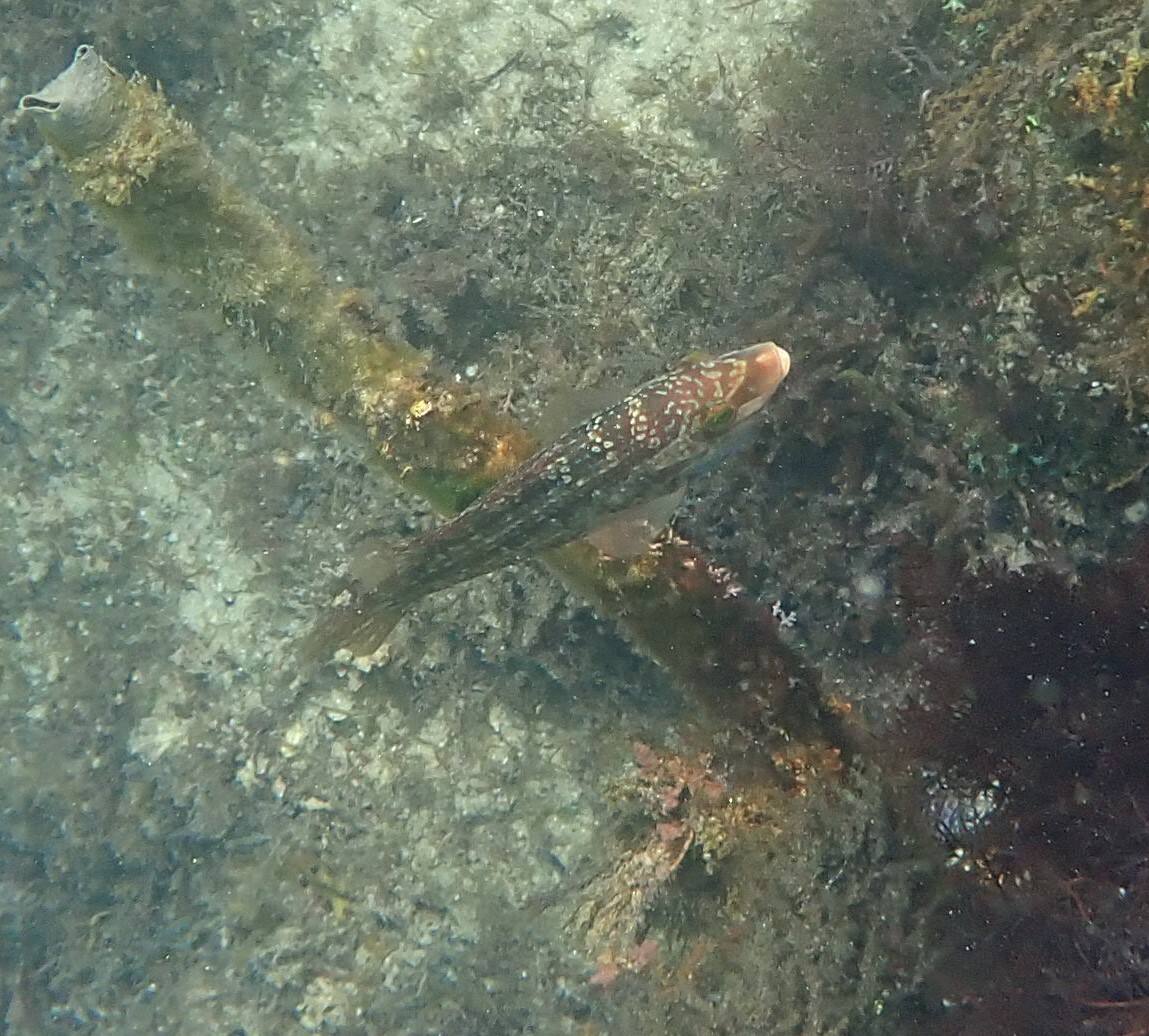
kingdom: Animalia
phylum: Chordata
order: Perciformes
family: Labridae
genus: Symphodus
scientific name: Symphodus melops
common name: Corkwing
